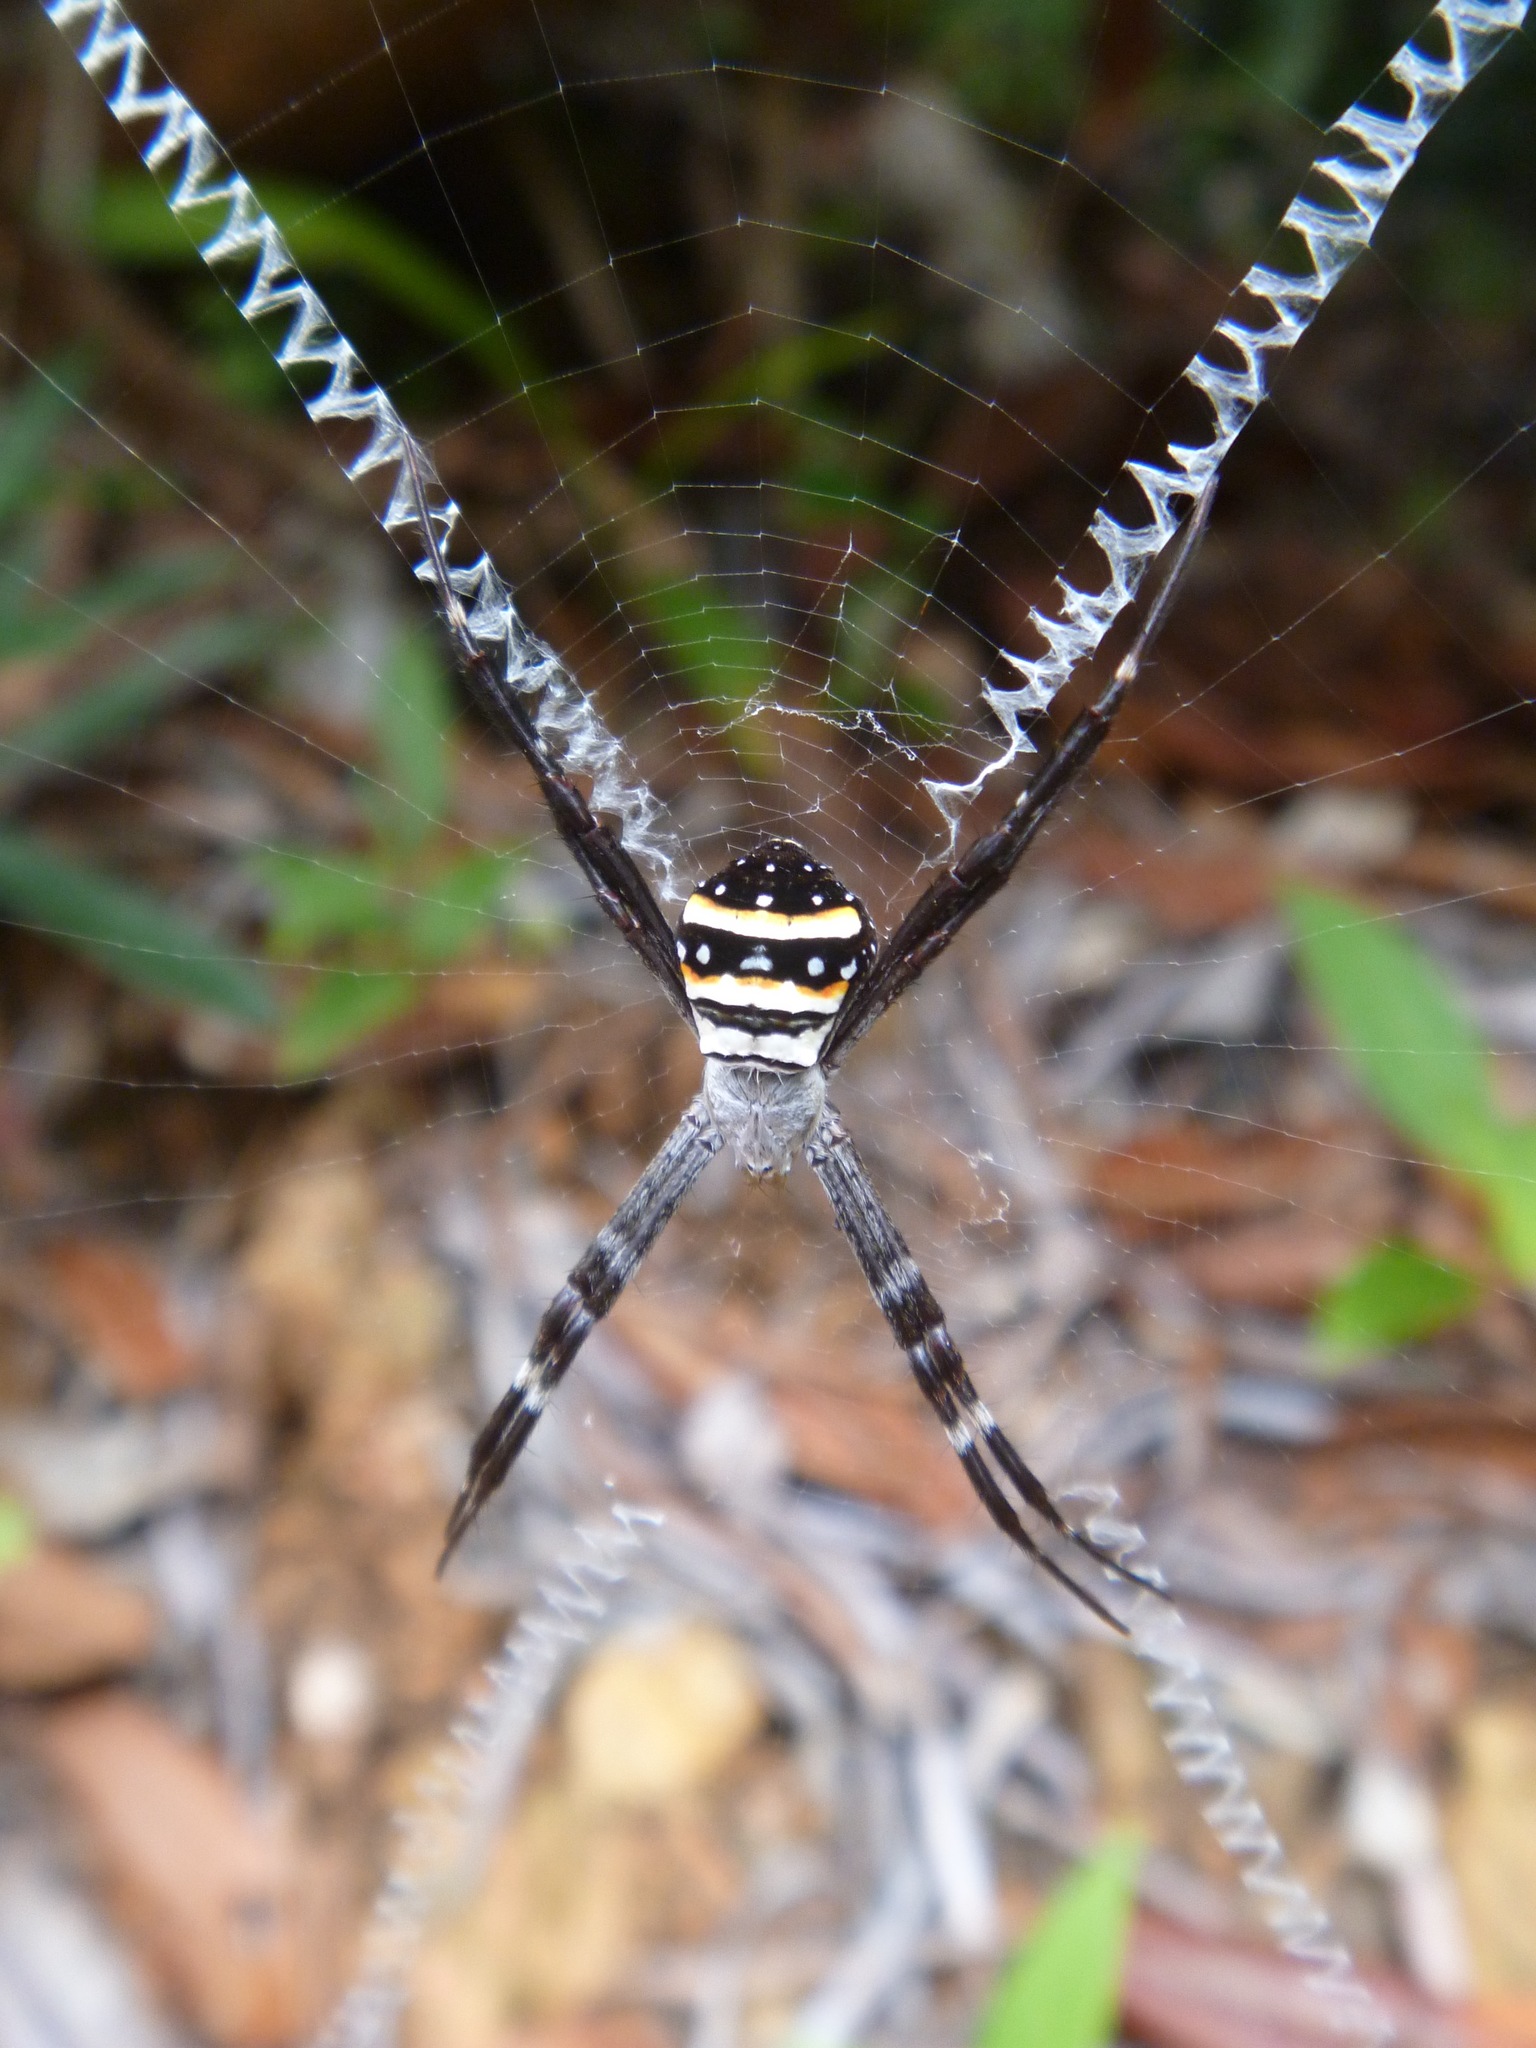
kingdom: Animalia
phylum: Arthropoda
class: Arachnida
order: Araneae
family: Araneidae
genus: Argiope
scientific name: Argiope caledonia
